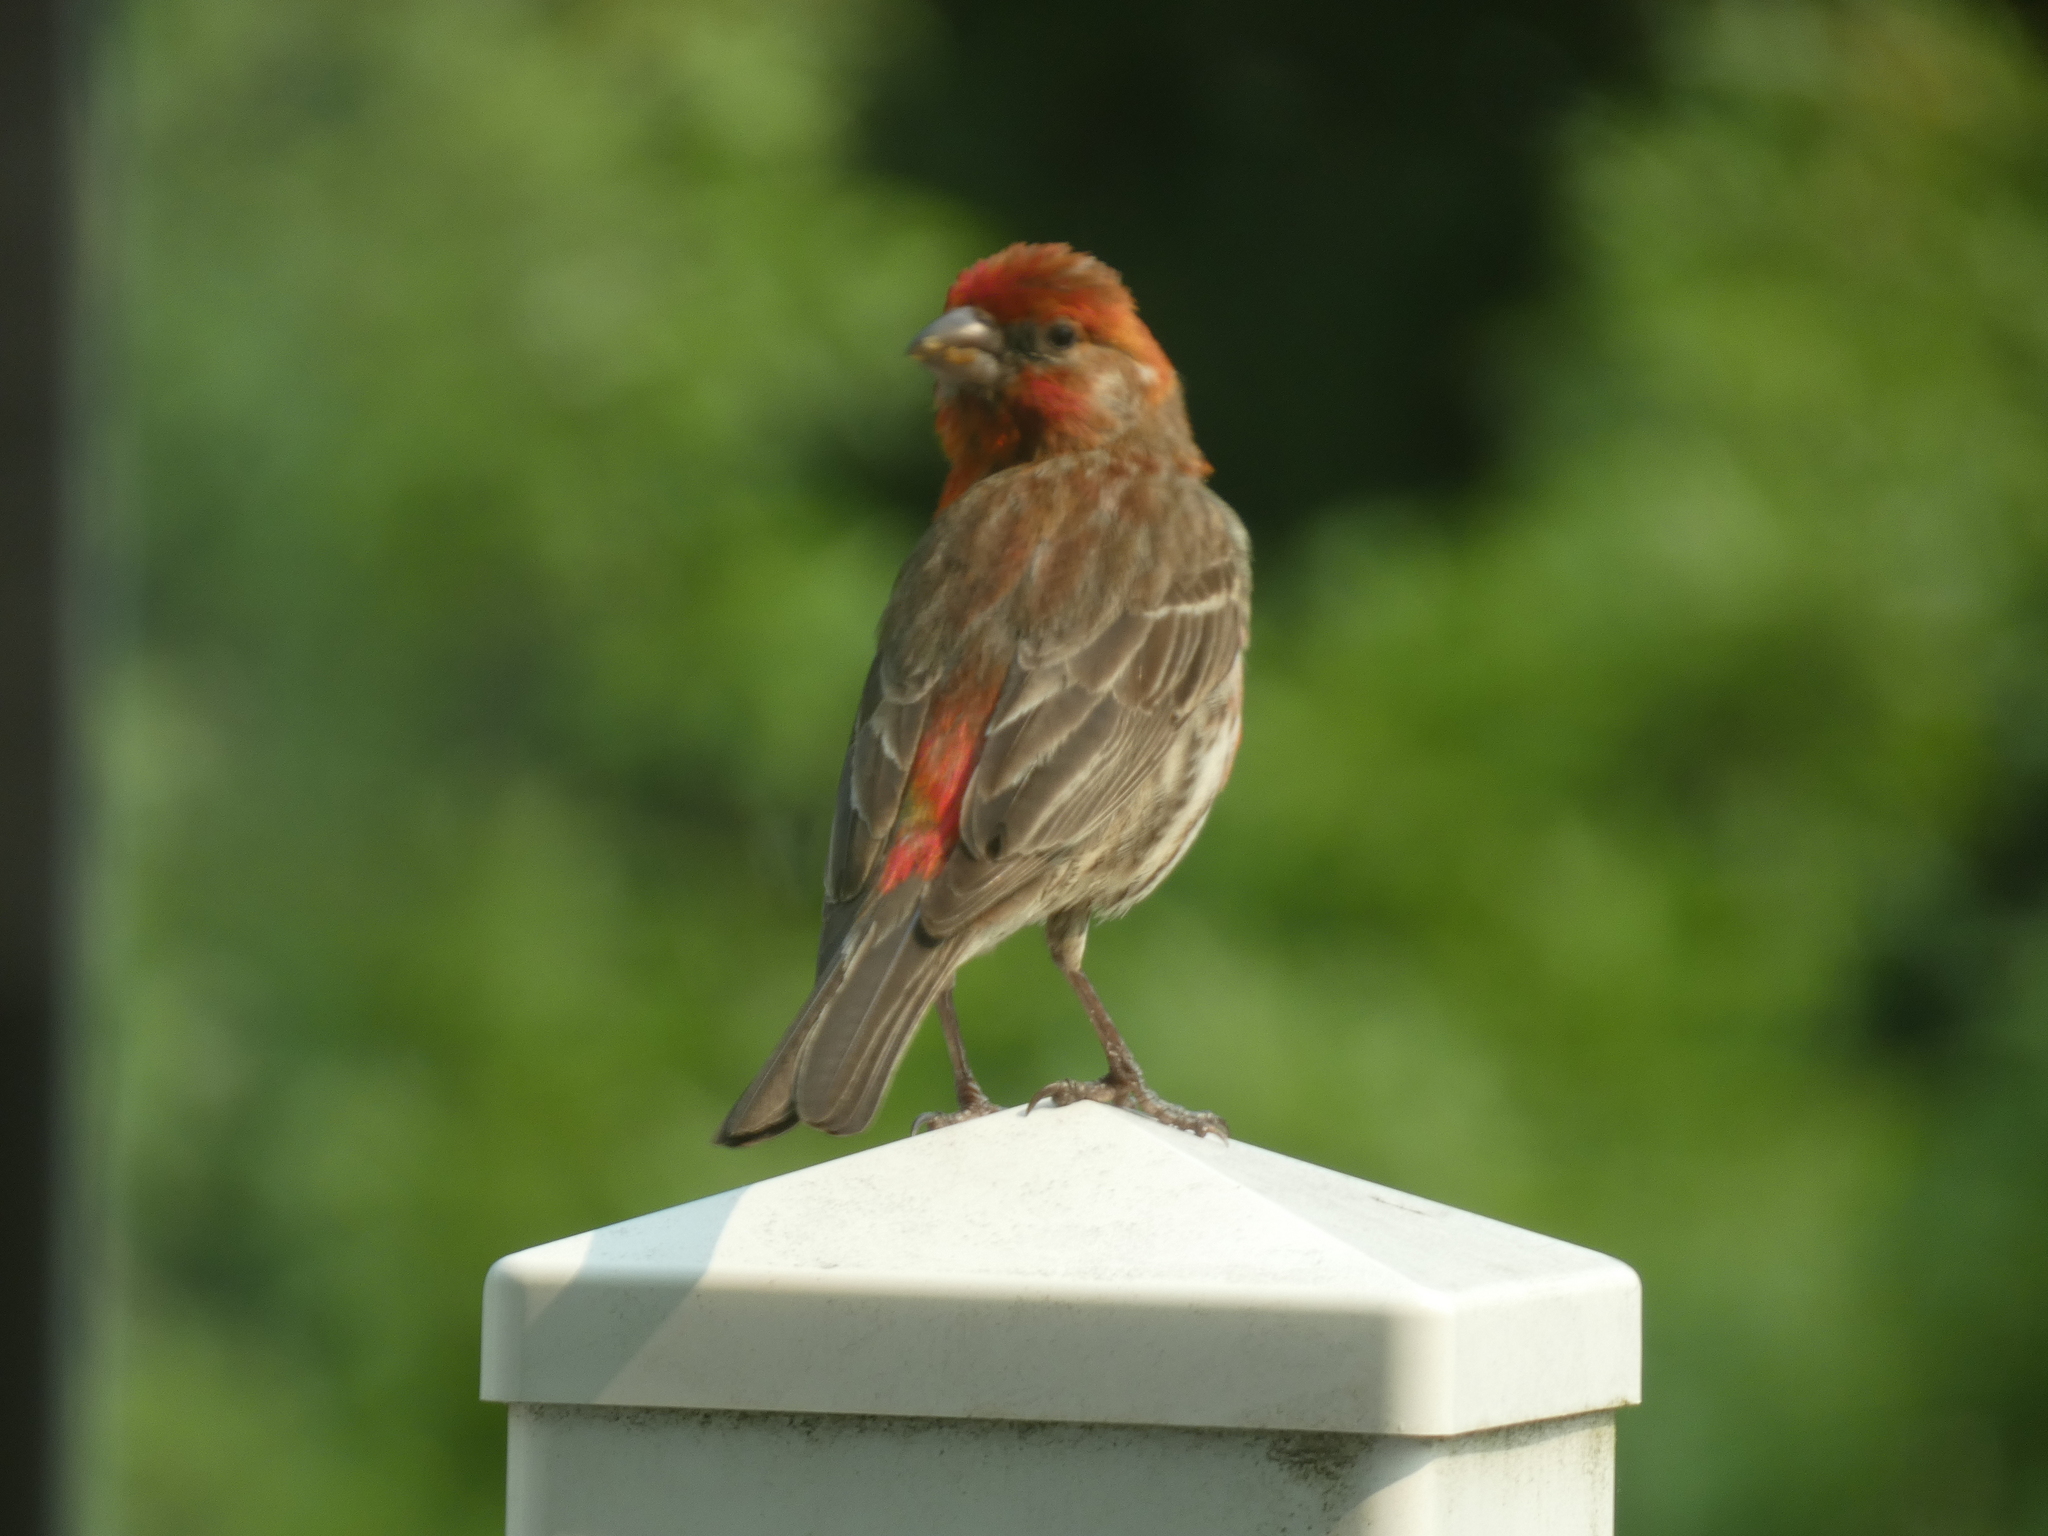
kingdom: Animalia
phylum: Chordata
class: Aves
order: Passeriformes
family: Fringillidae
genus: Haemorhous
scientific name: Haemorhous mexicanus
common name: House finch
